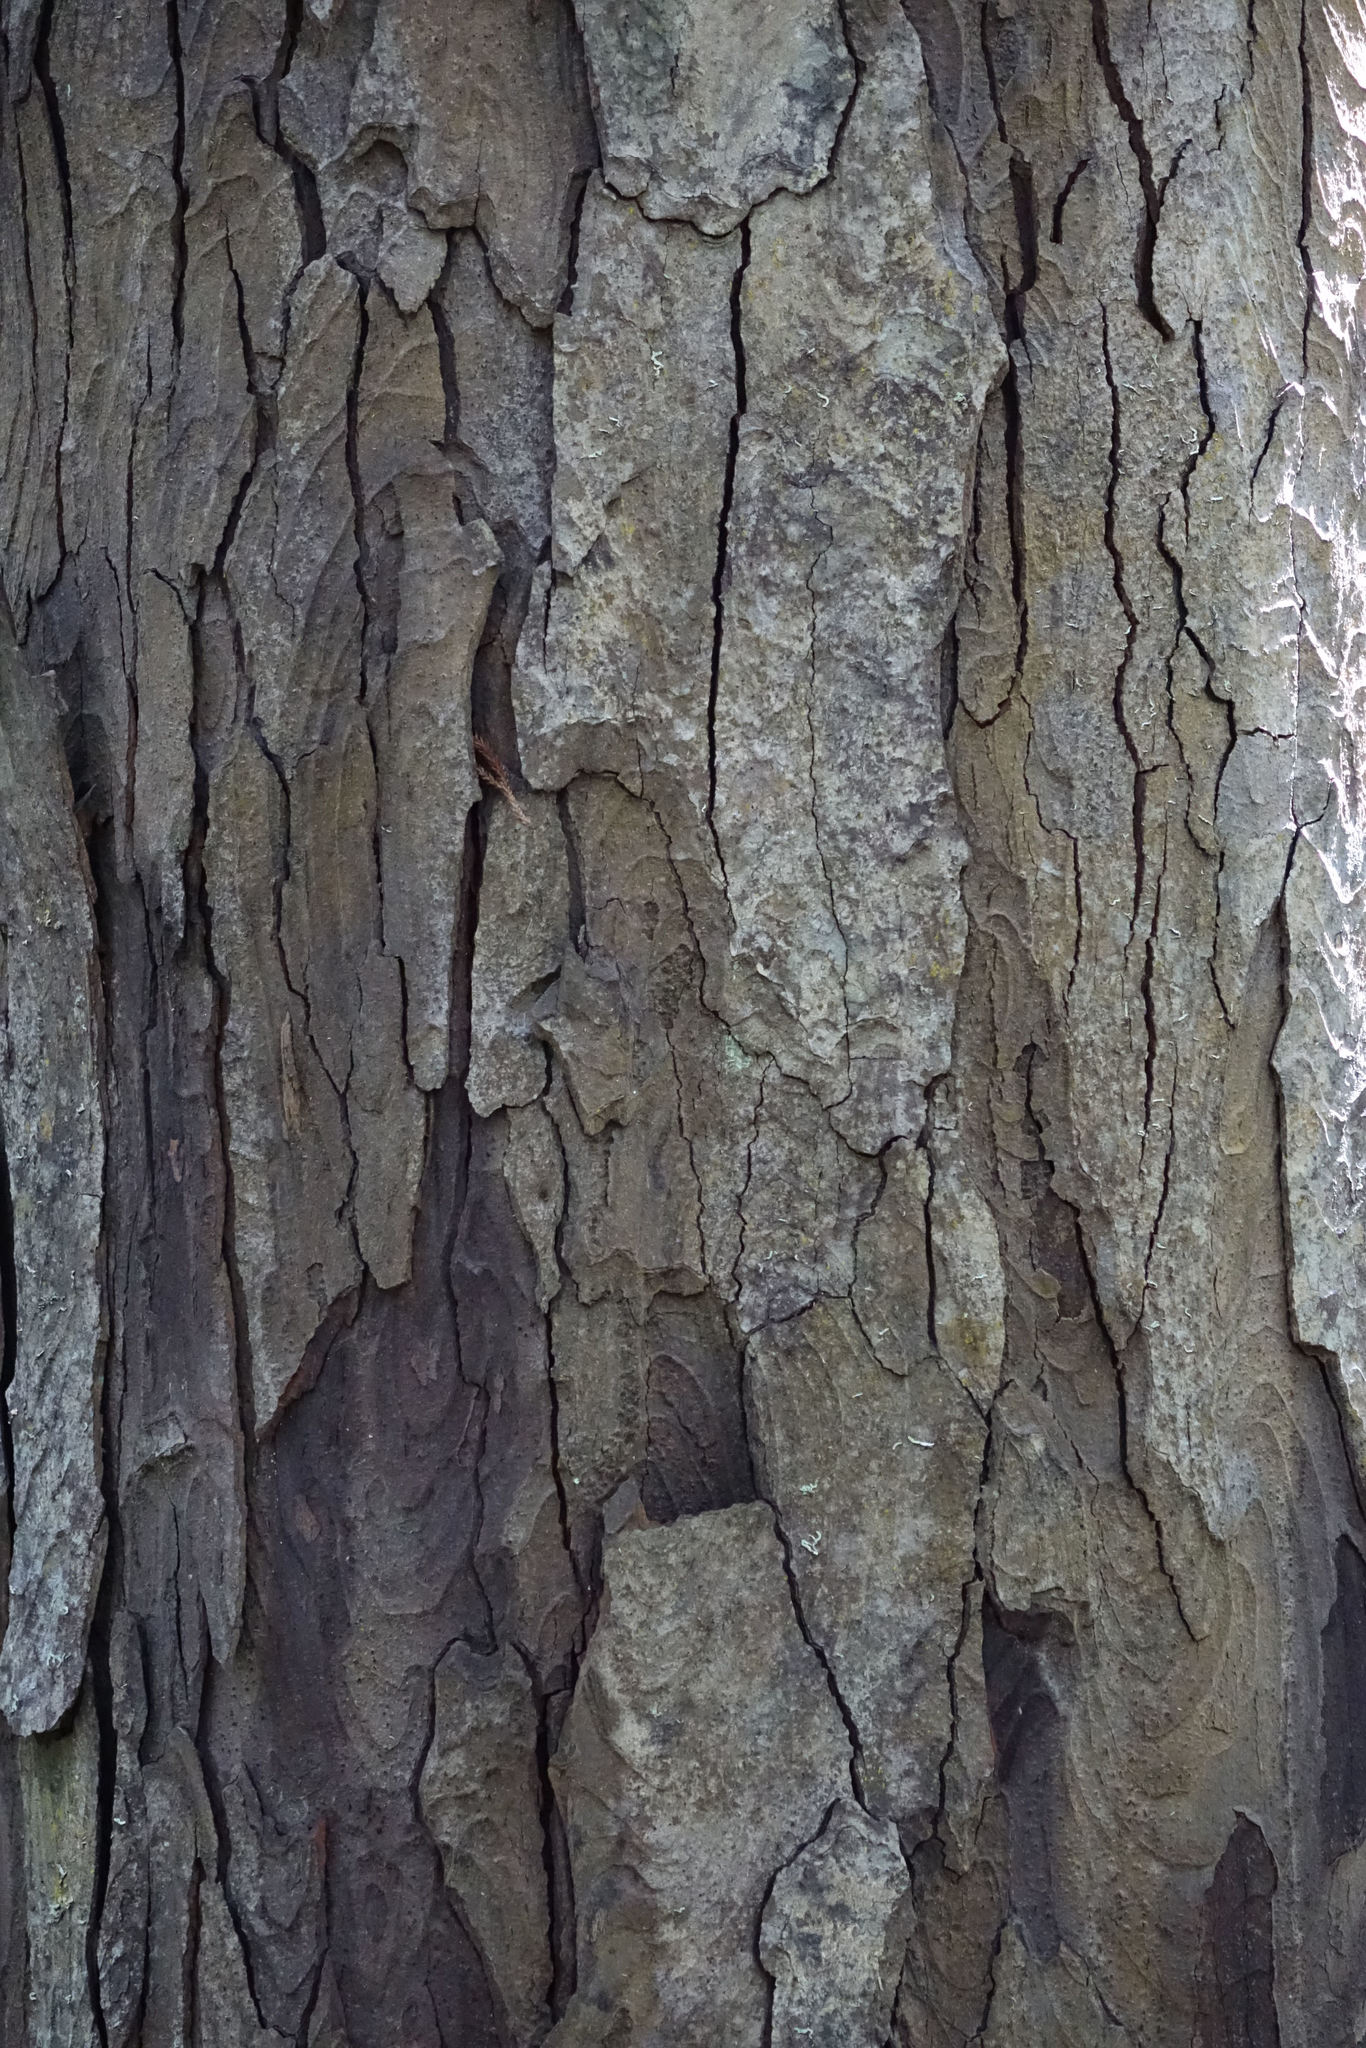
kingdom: Plantae
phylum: Tracheophyta
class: Pinopsida
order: Pinales
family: Podocarpaceae
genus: Dacrydium
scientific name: Dacrydium cupressinum
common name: Red pine
